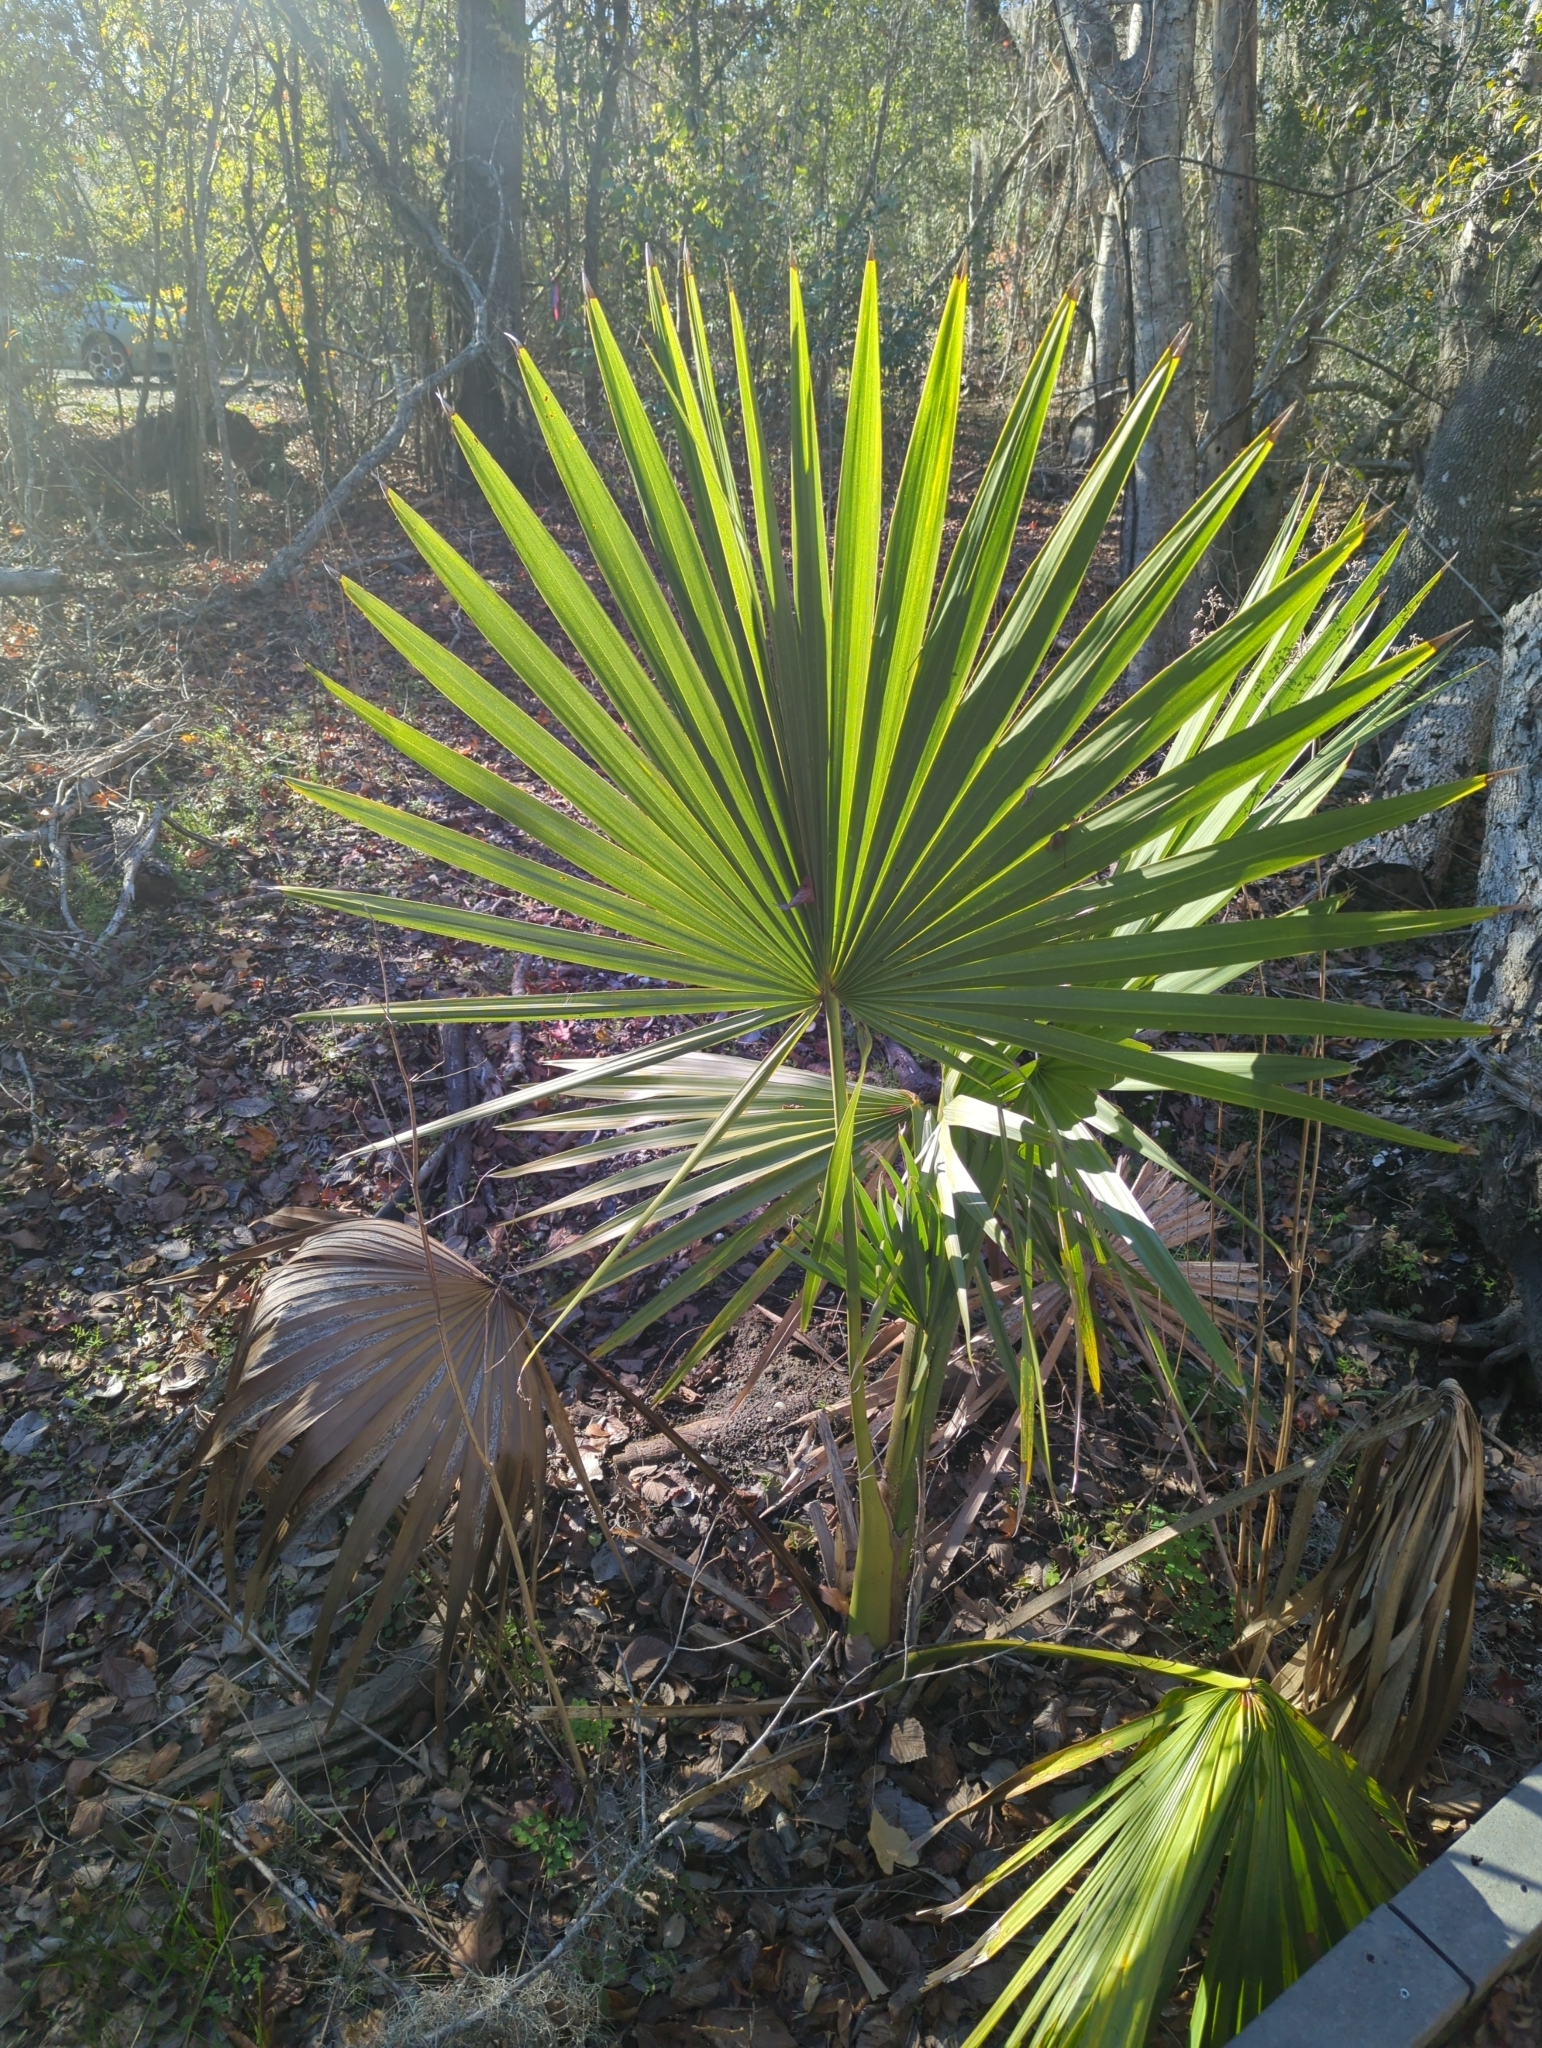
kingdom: Plantae
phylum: Tracheophyta
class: Liliopsida
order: Arecales
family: Arecaceae
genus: Sabal
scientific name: Sabal minor
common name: Dwarf palmetto
